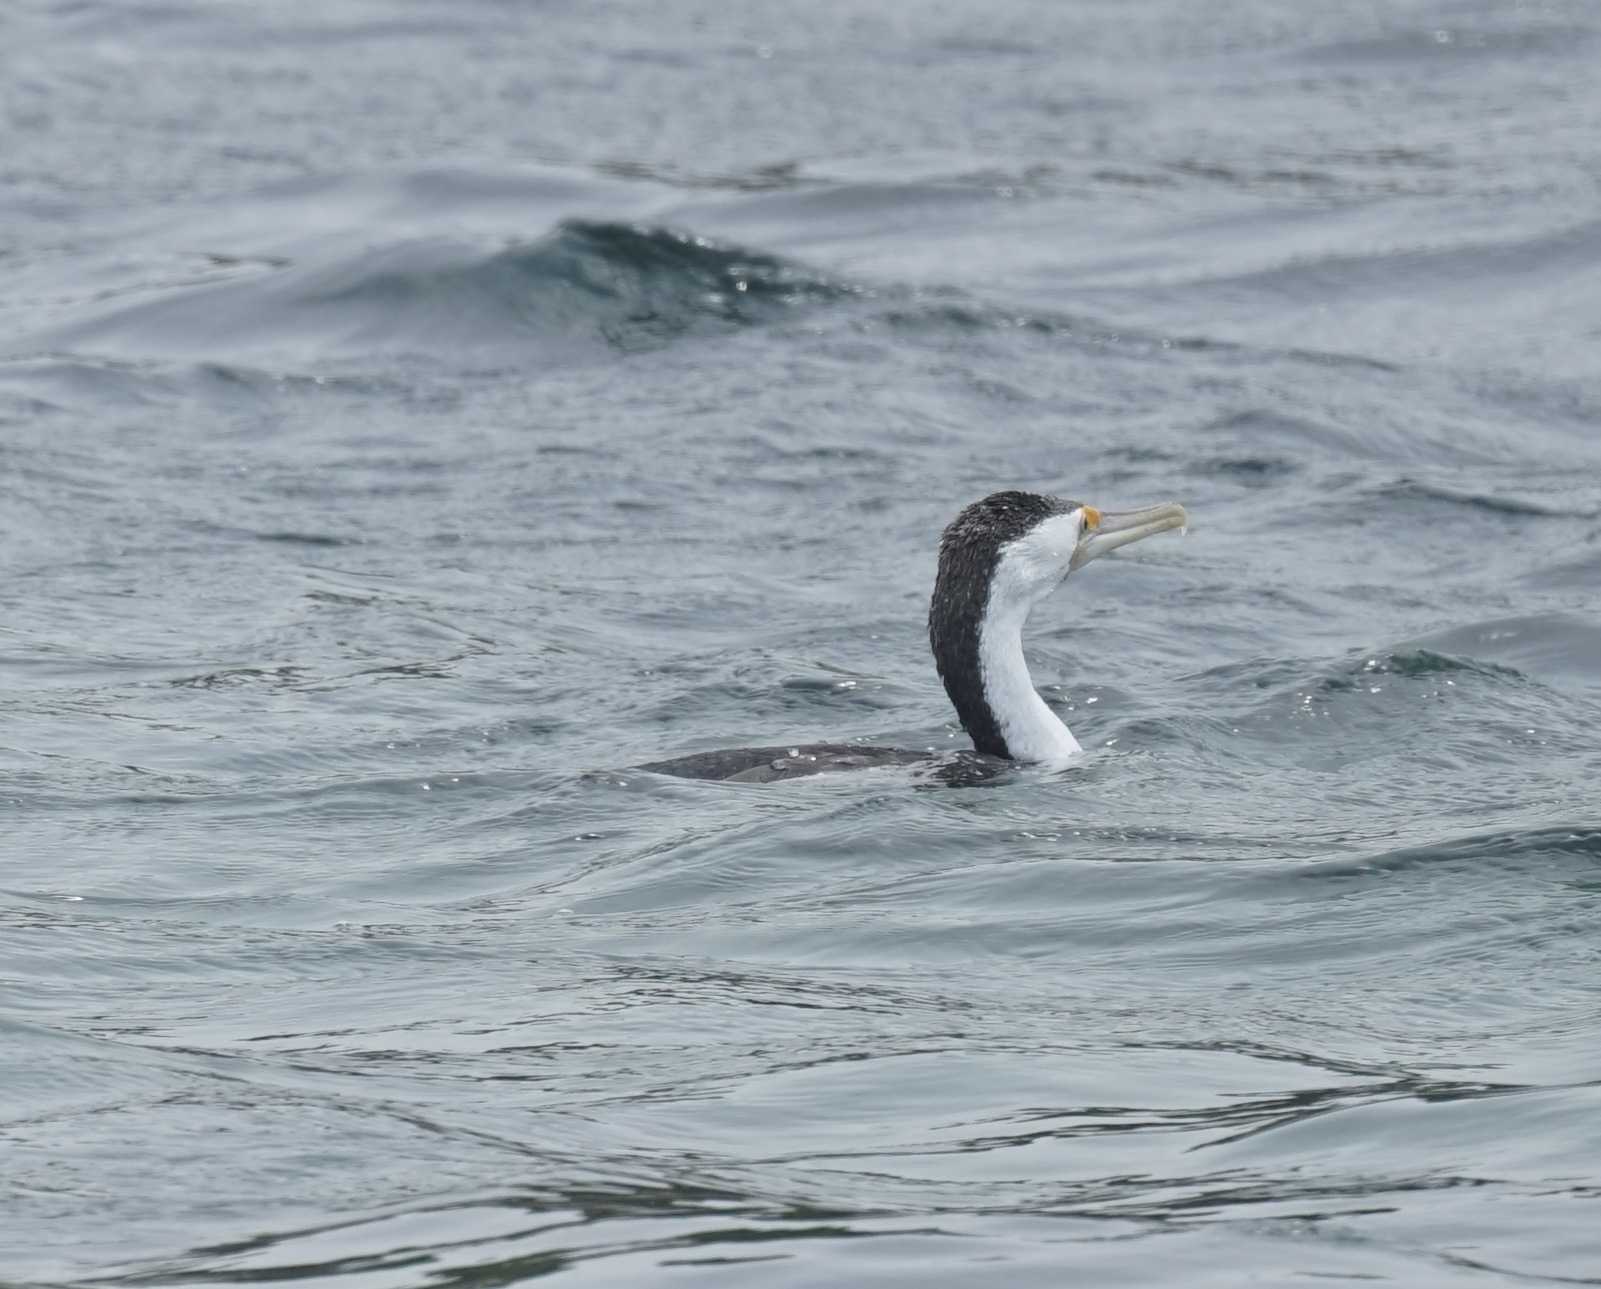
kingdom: Animalia
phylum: Chordata
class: Aves
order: Suliformes
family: Phalacrocoracidae
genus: Phalacrocorax
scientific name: Phalacrocorax varius
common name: Pied cormorant
